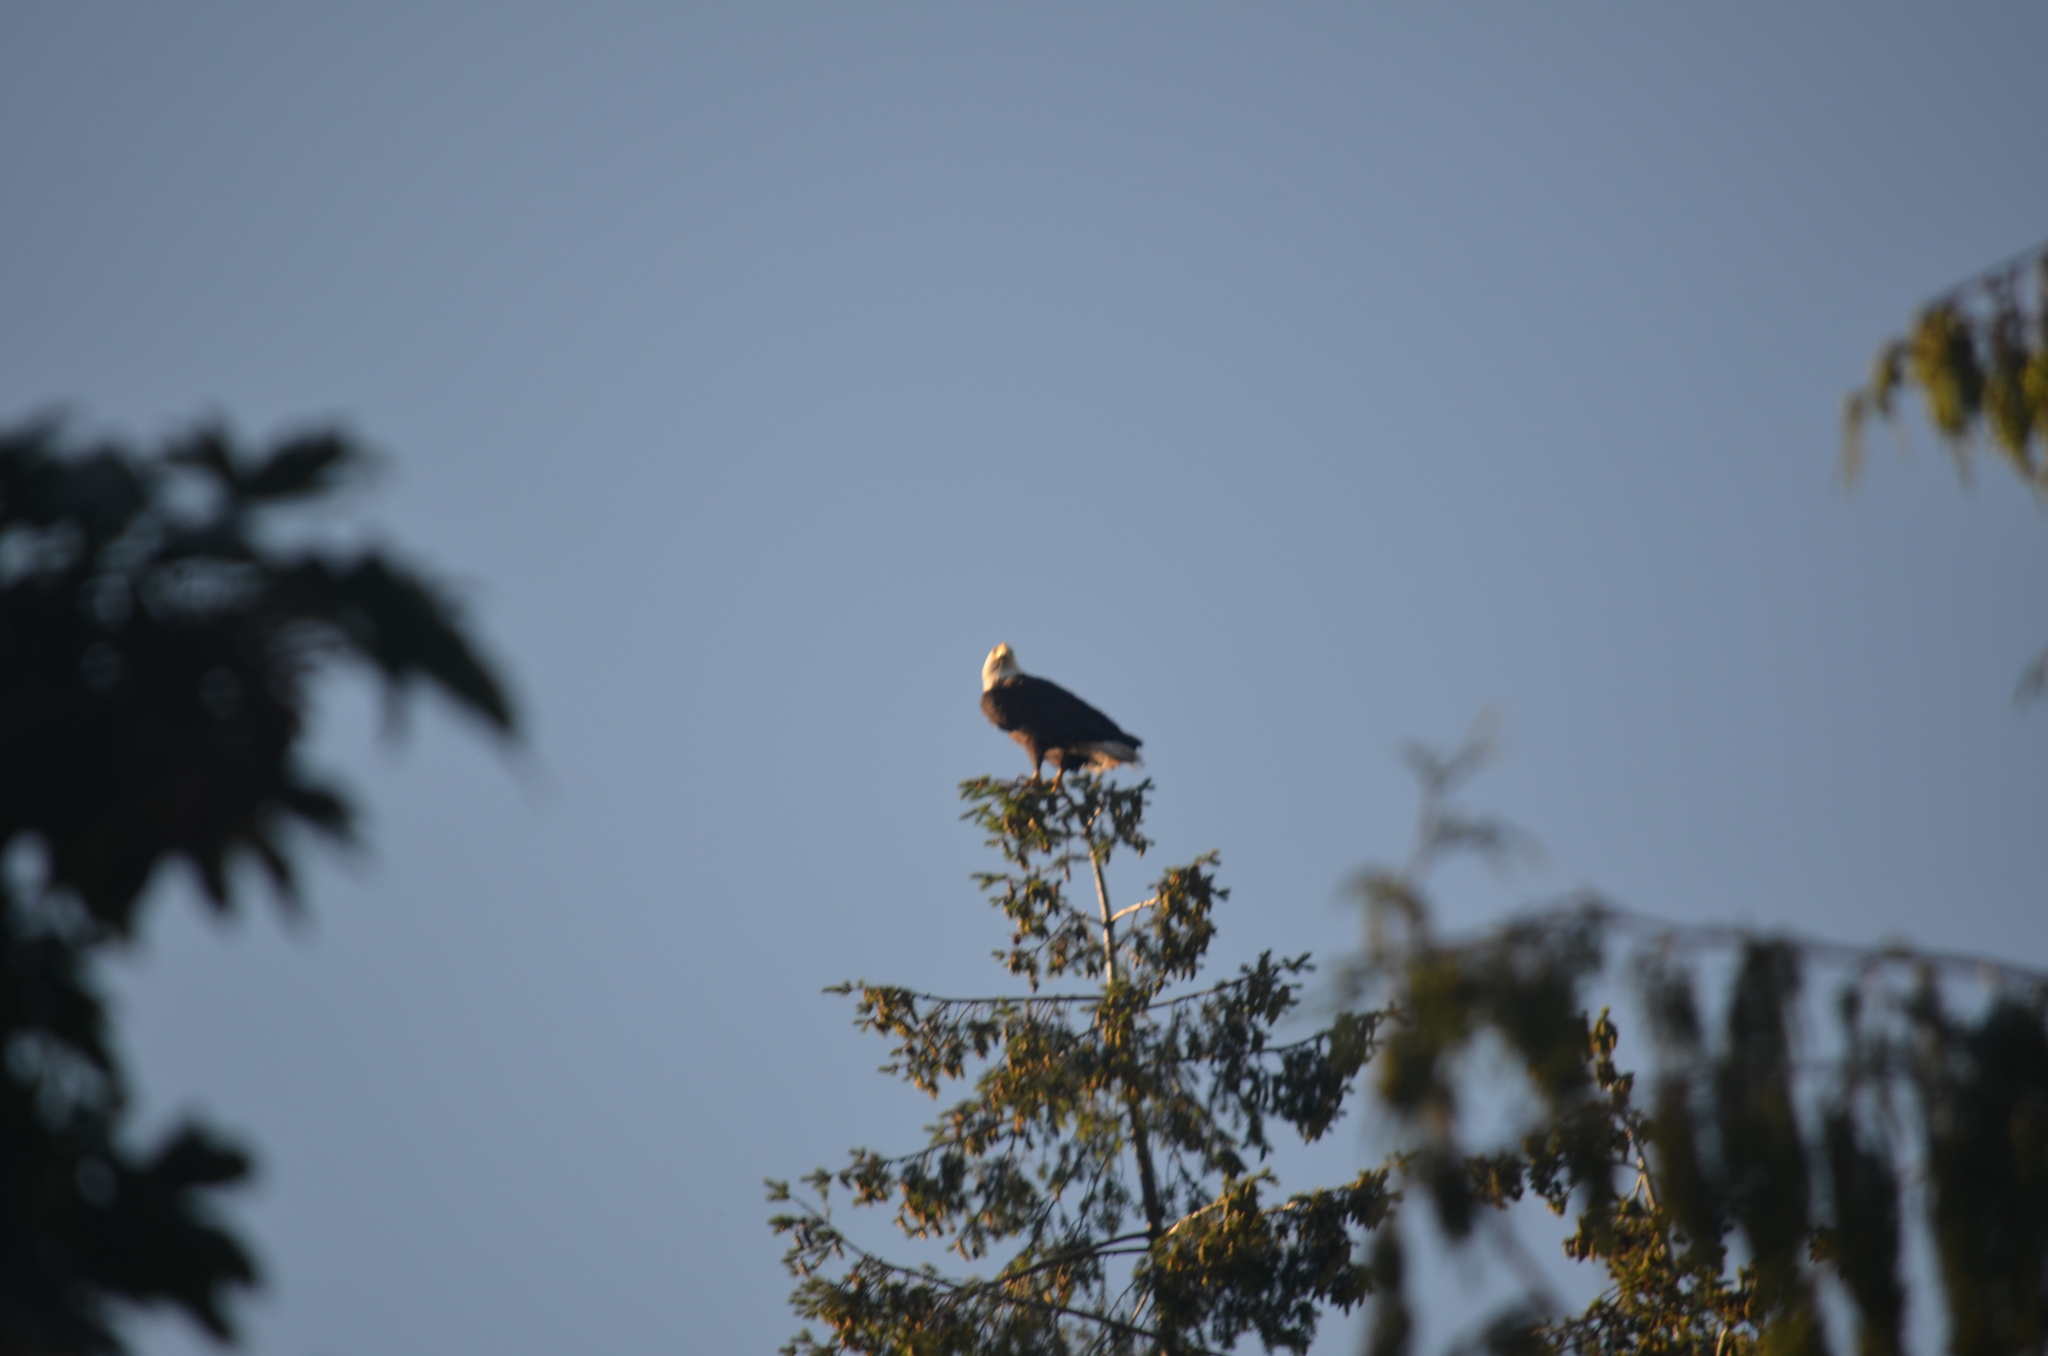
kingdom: Animalia
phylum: Chordata
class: Aves
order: Accipitriformes
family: Accipitridae
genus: Haliaeetus
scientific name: Haliaeetus leucocephalus
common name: Bald eagle
